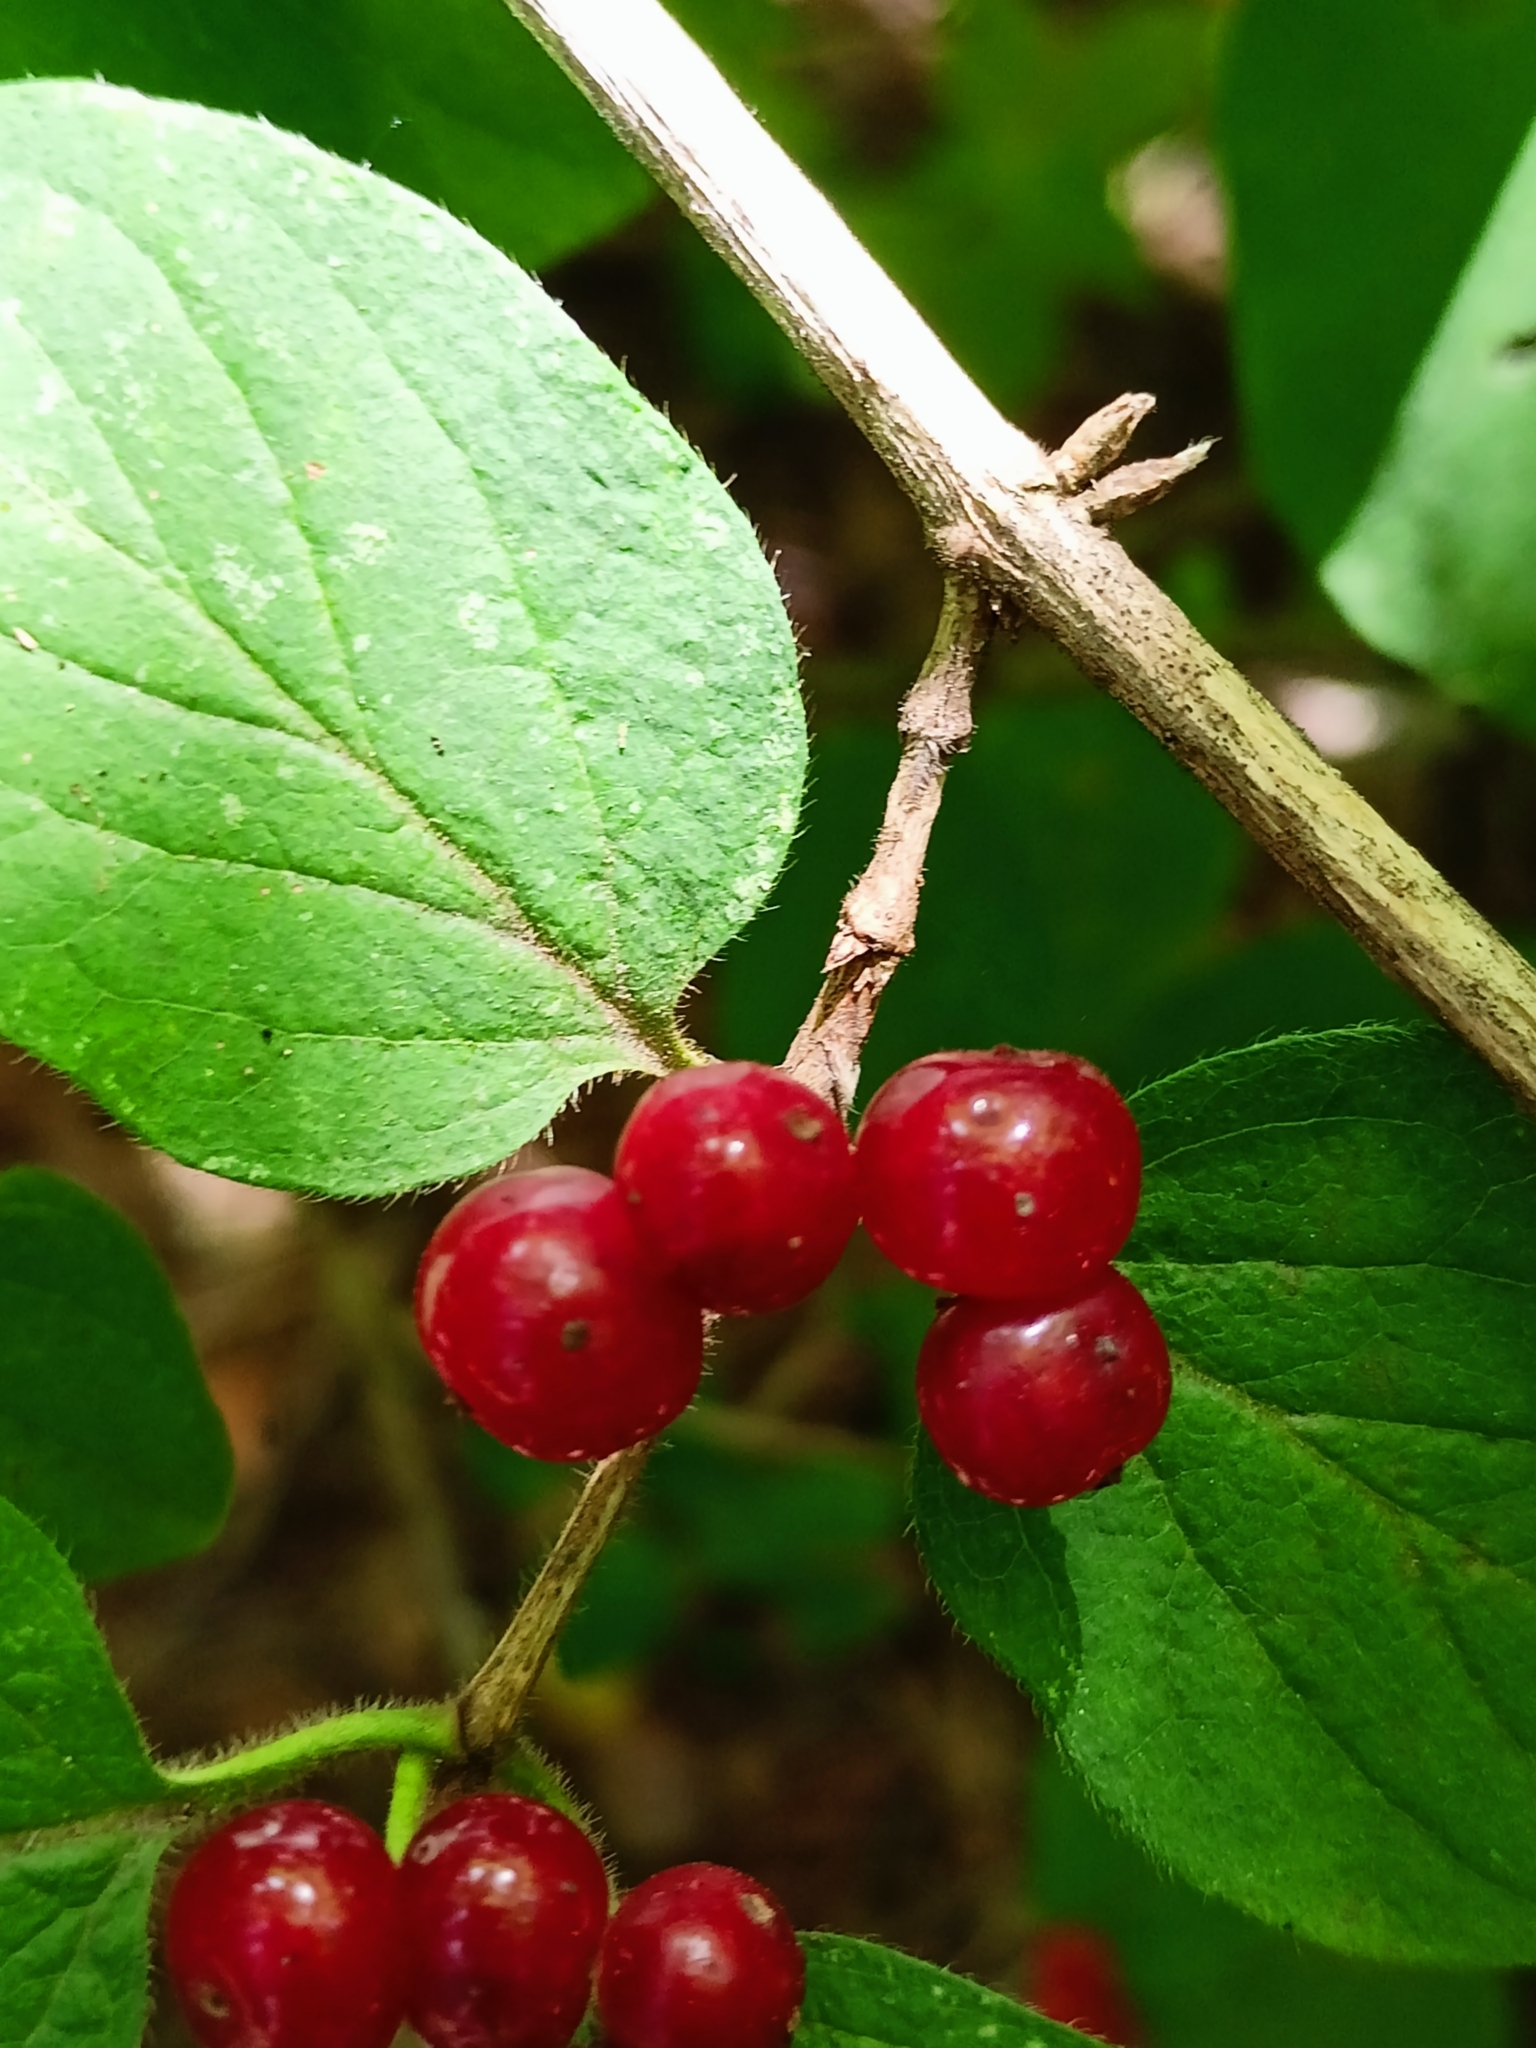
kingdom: Plantae
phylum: Tracheophyta
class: Magnoliopsida
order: Dipsacales
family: Caprifoliaceae
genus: Lonicera
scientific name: Lonicera xylosteum
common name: Fly honeysuckle
